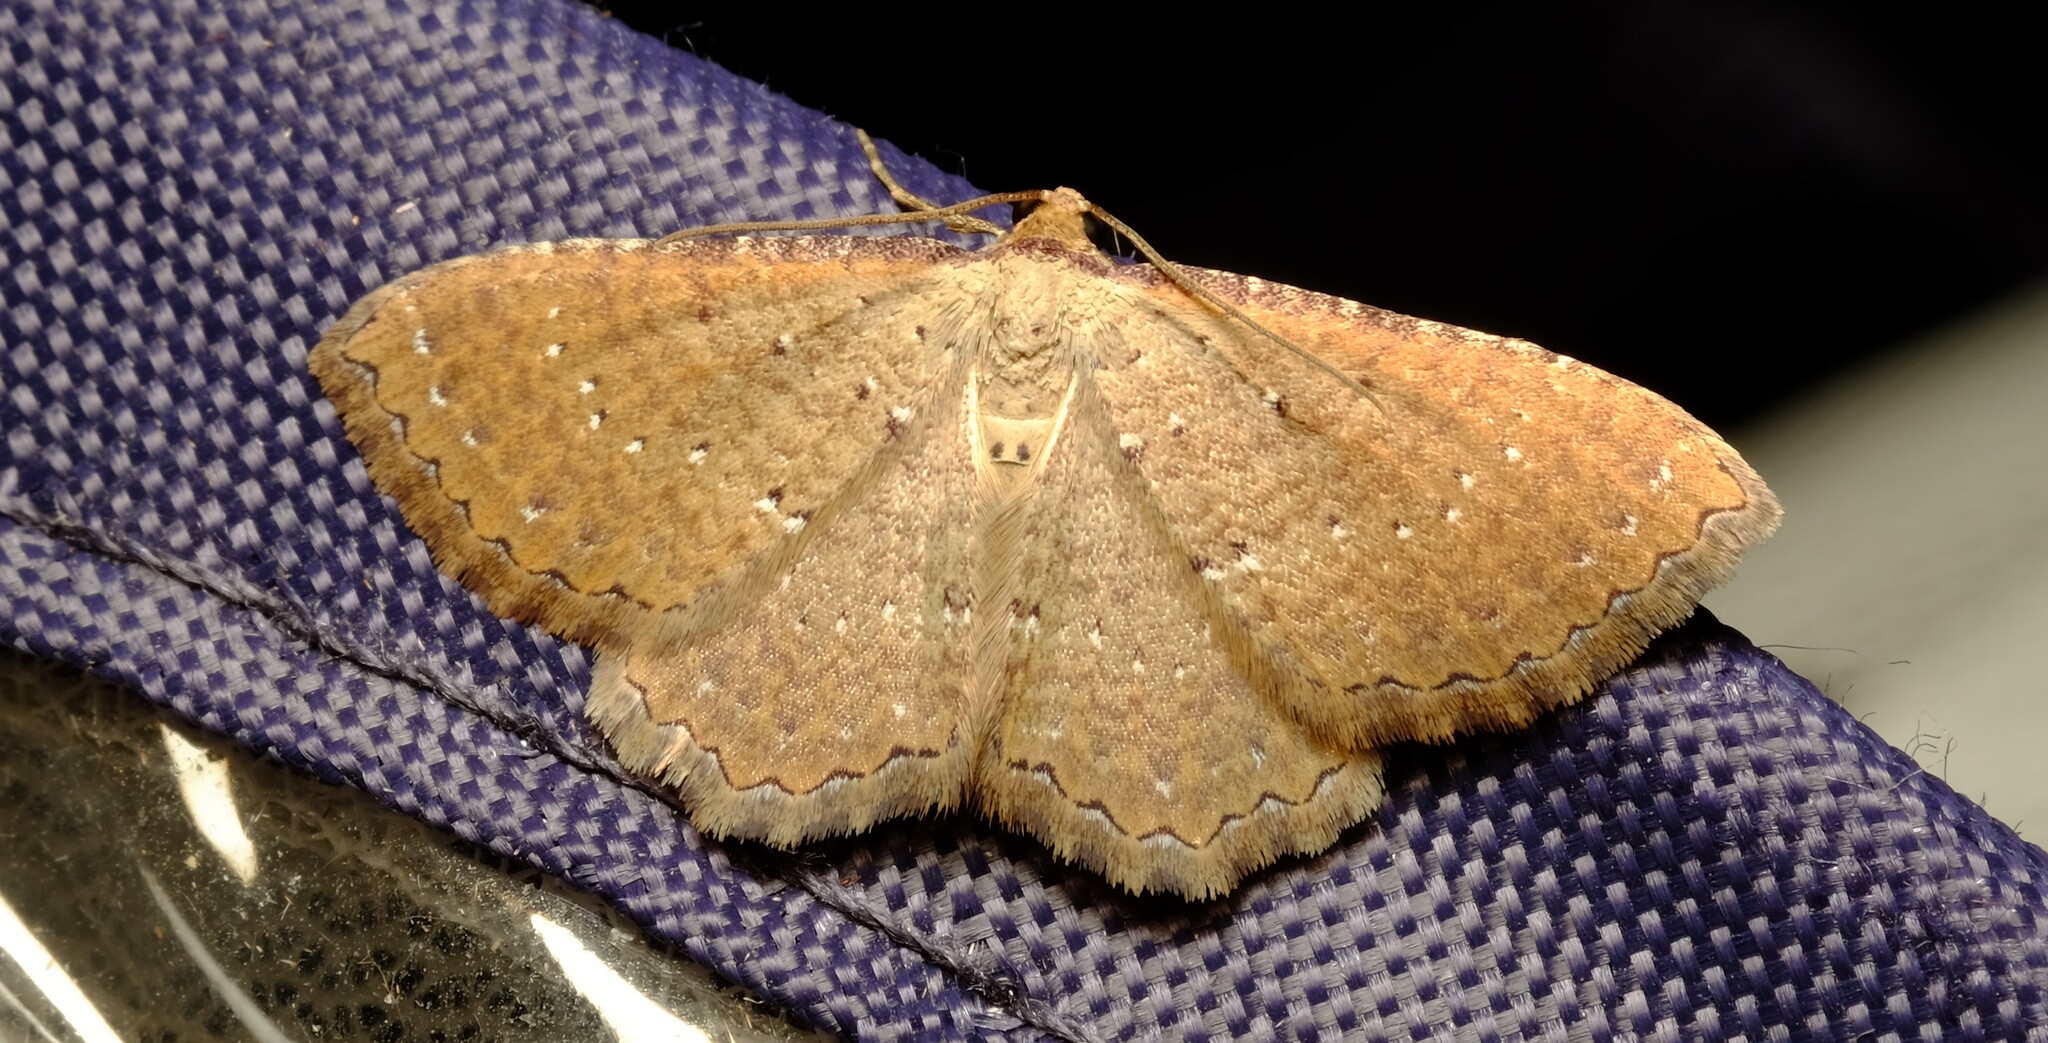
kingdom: Animalia
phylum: Arthropoda
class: Insecta
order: Lepidoptera
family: Geometridae
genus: Chrysolarentia
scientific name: Chrysolarentia microcyma
